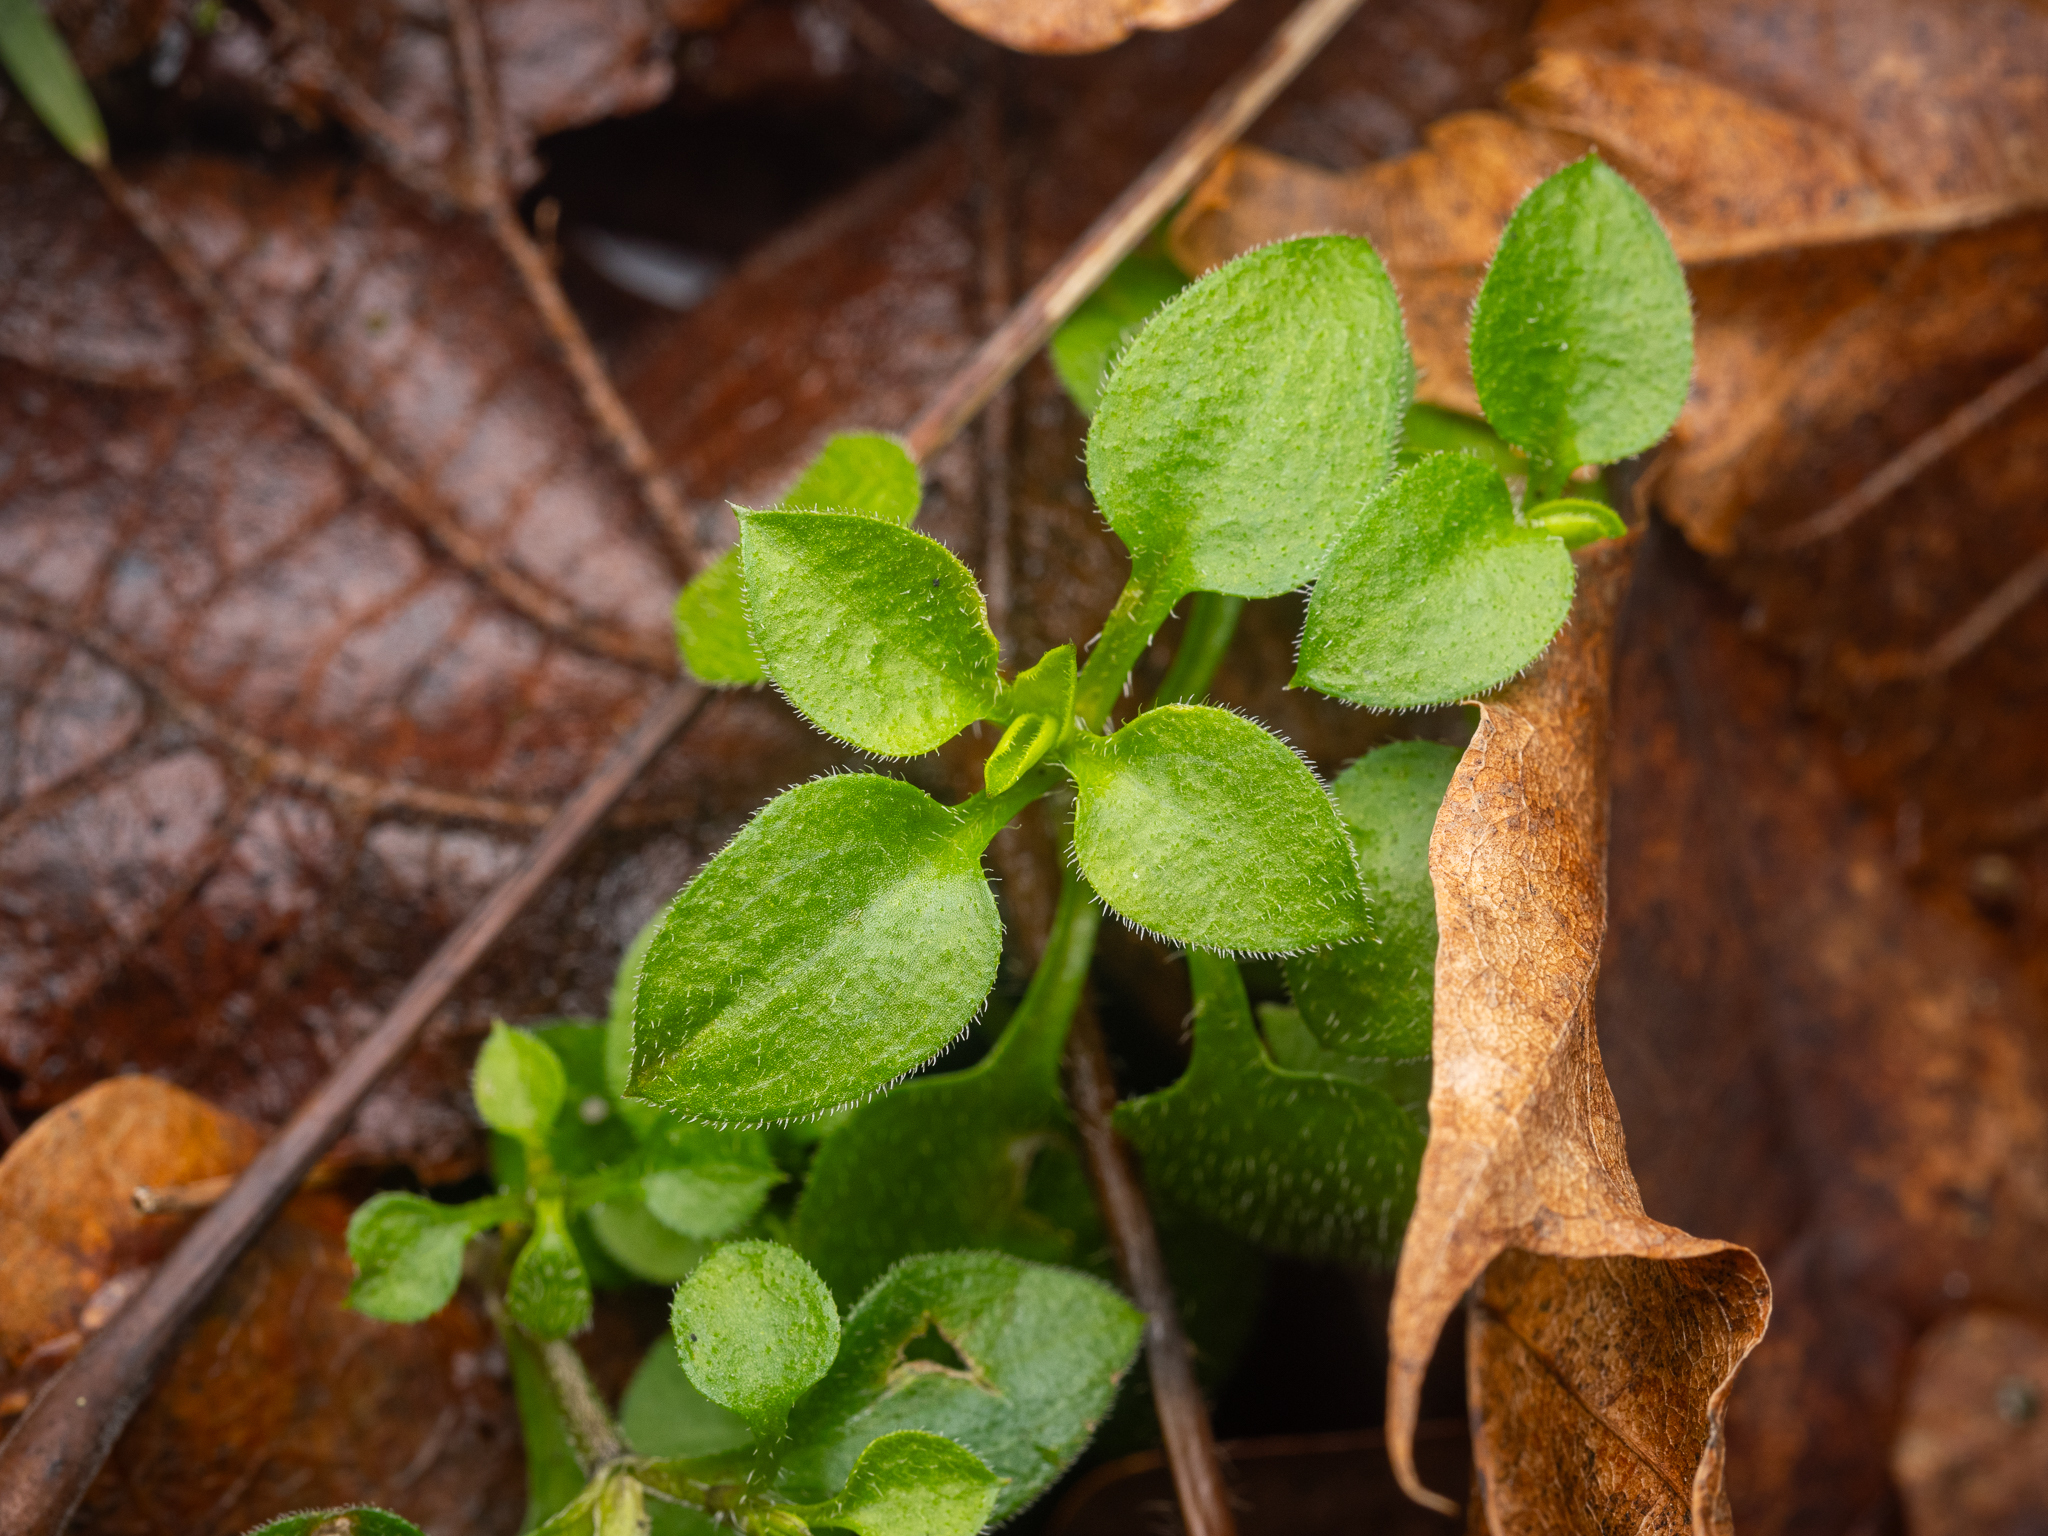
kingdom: Plantae
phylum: Tracheophyta
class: Magnoliopsida
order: Caryophyllales
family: Caryophyllaceae
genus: Moehringia
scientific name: Moehringia trinervia
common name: Three-nerved sandwort
